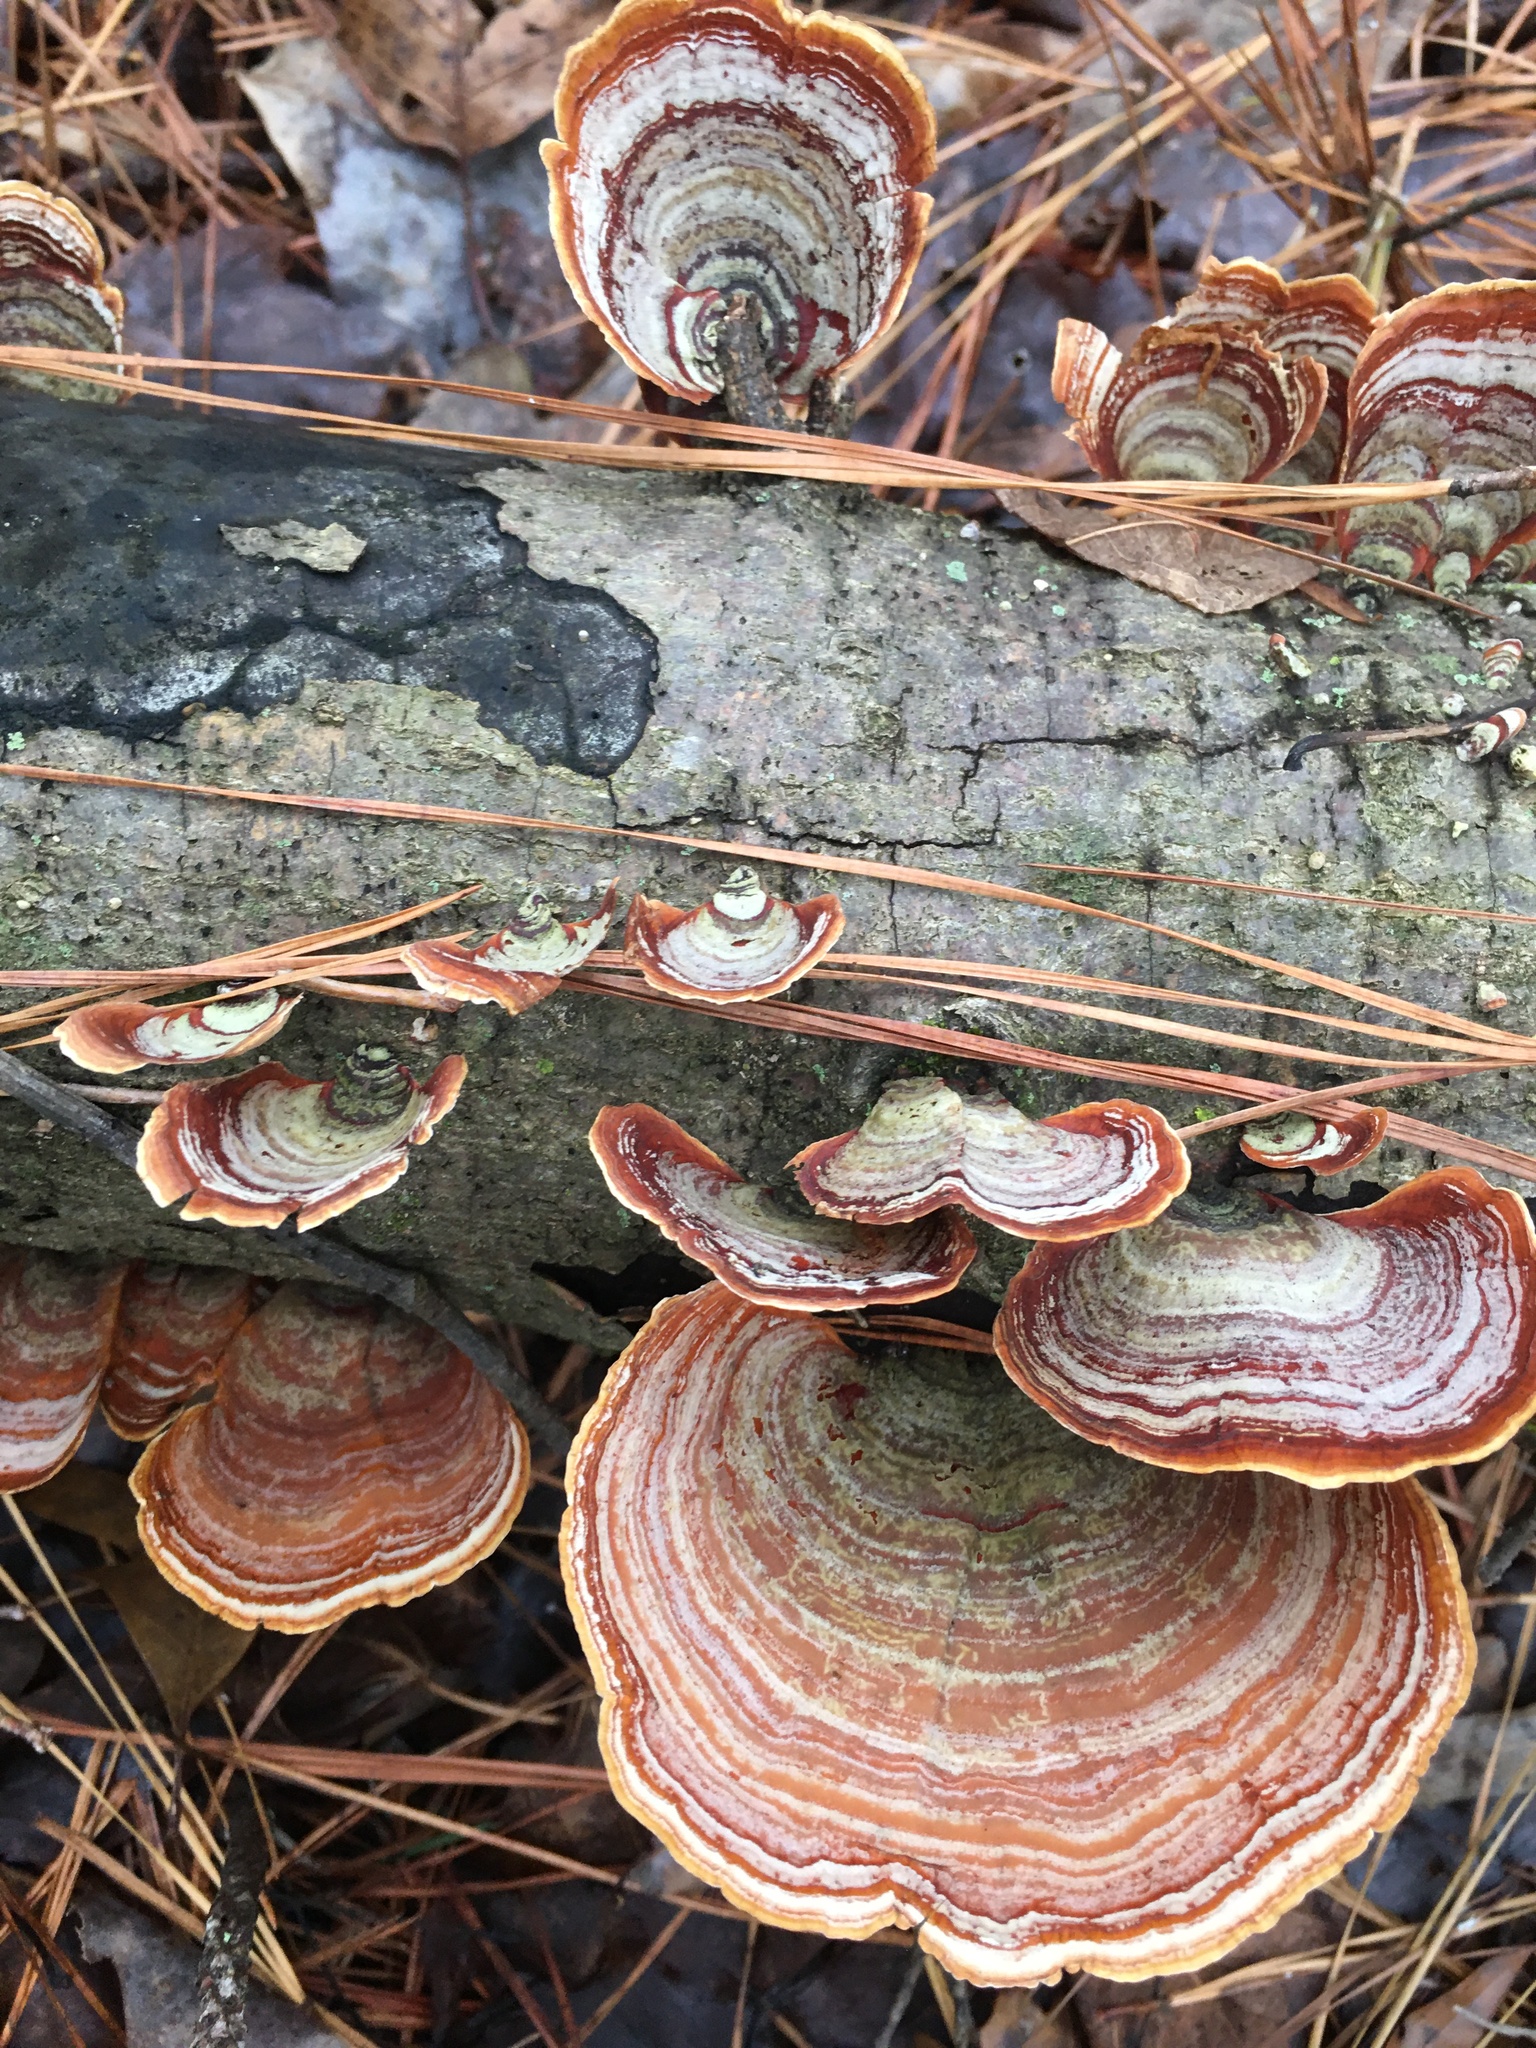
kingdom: Fungi
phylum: Basidiomycota
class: Agaricomycetes
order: Russulales
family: Stereaceae
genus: Stereum
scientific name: Stereum lobatum
